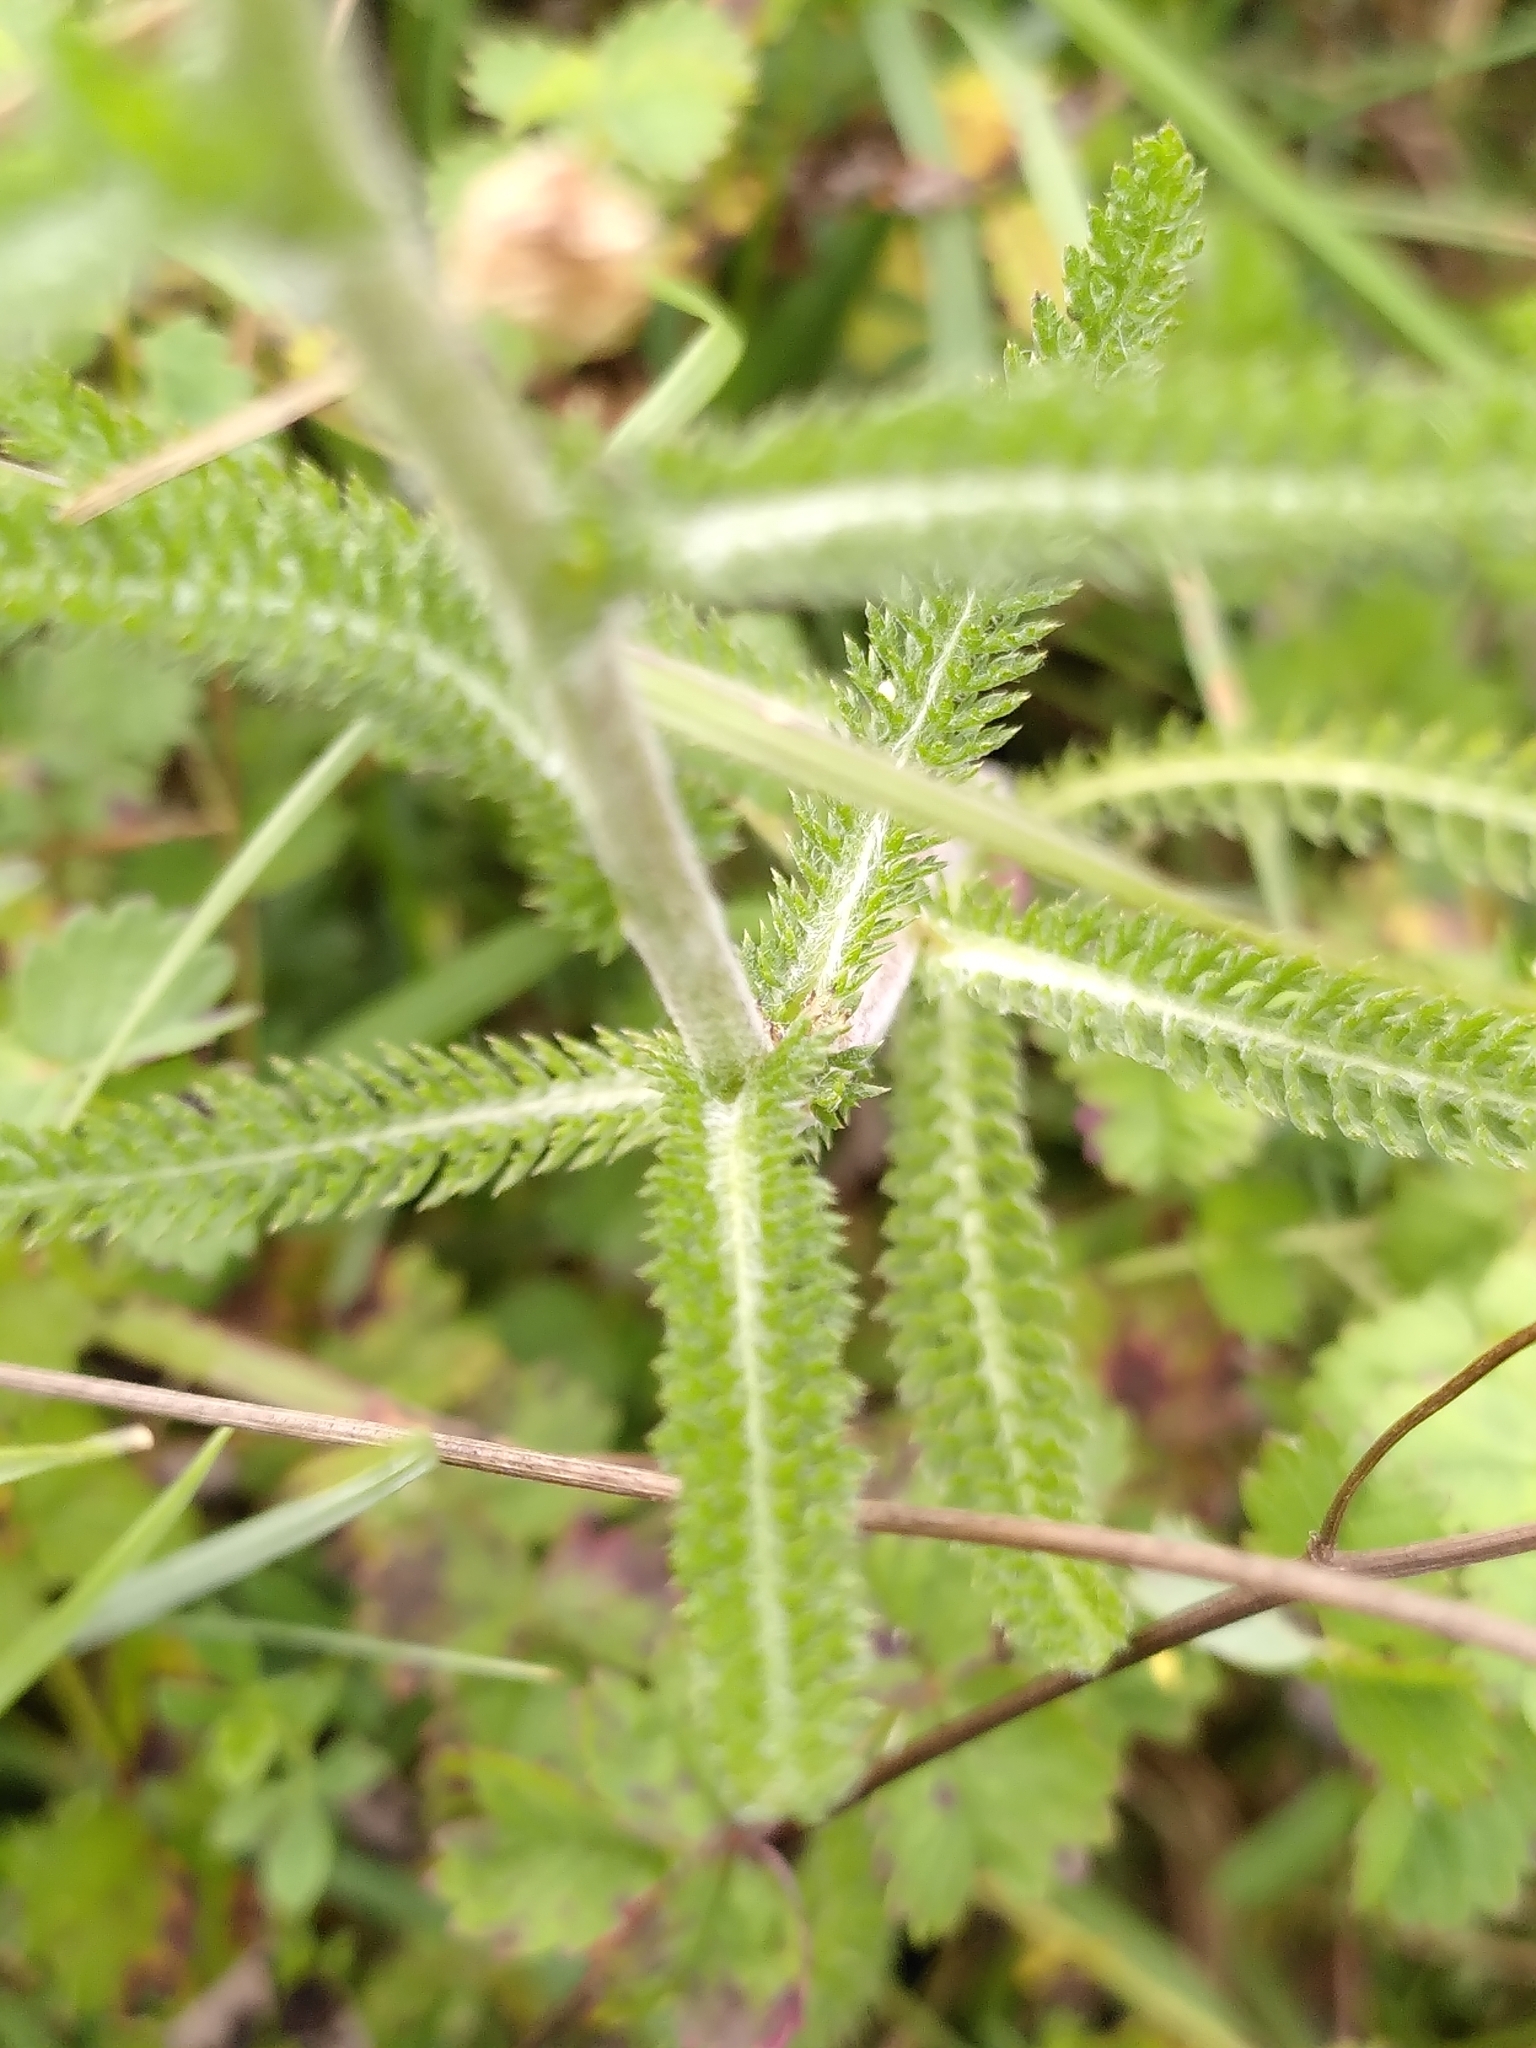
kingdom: Plantae
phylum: Tracheophyta
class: Magnoliopsida
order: Asterales
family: Asteraceae
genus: Achillea
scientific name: Achillea millefolium
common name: Yarrow
